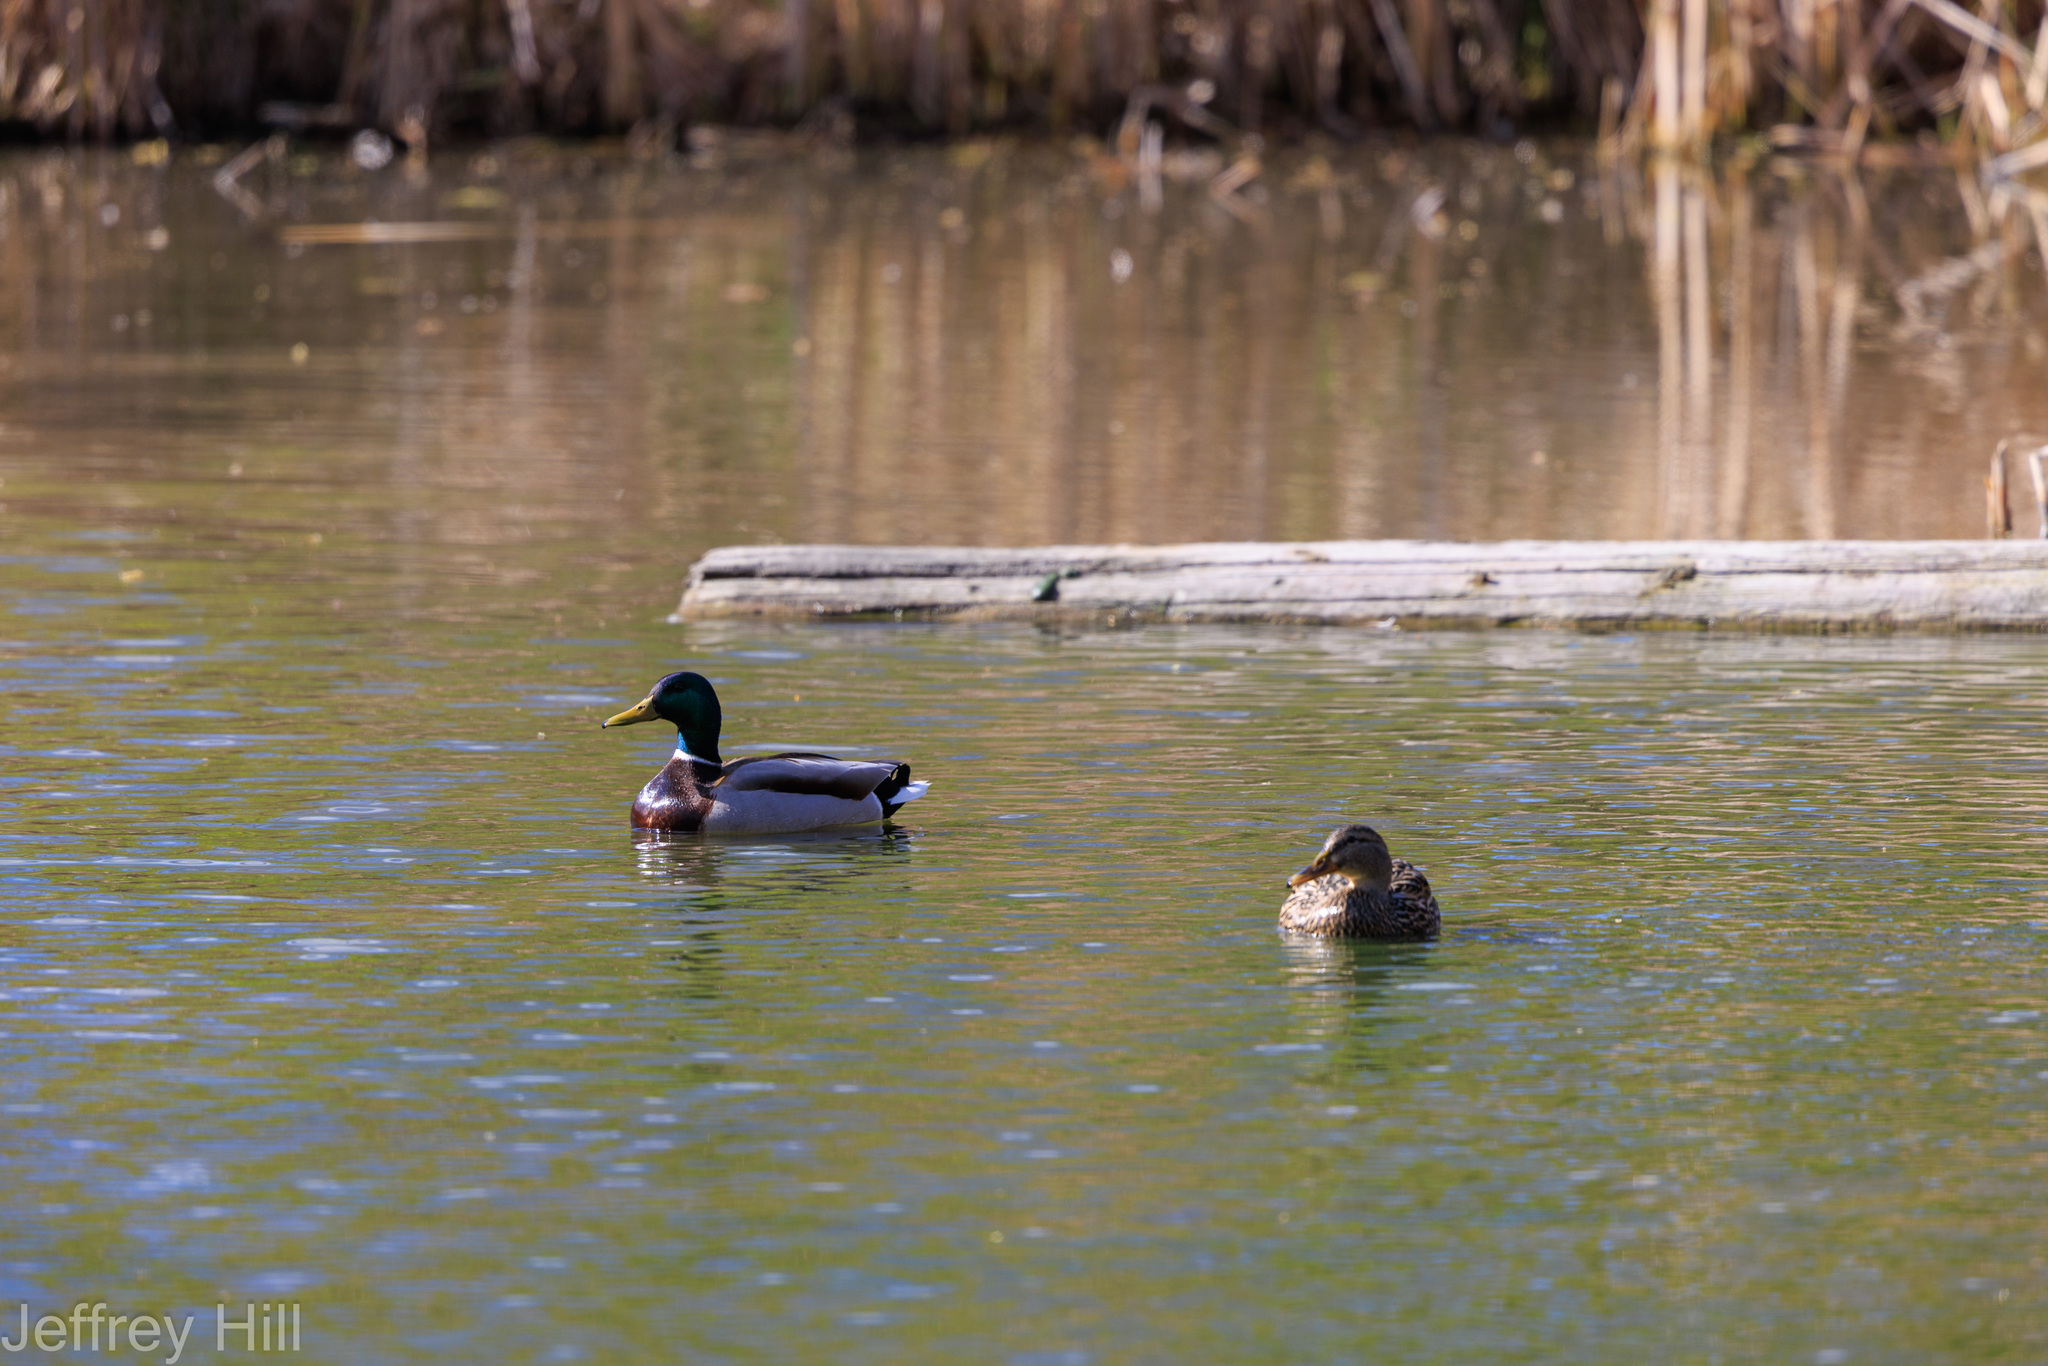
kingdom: Animalia
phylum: Chordata
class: Aves
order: Anseriformes
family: Anatidae
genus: Anas
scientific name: Anas platyrhynchos
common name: Mallard
